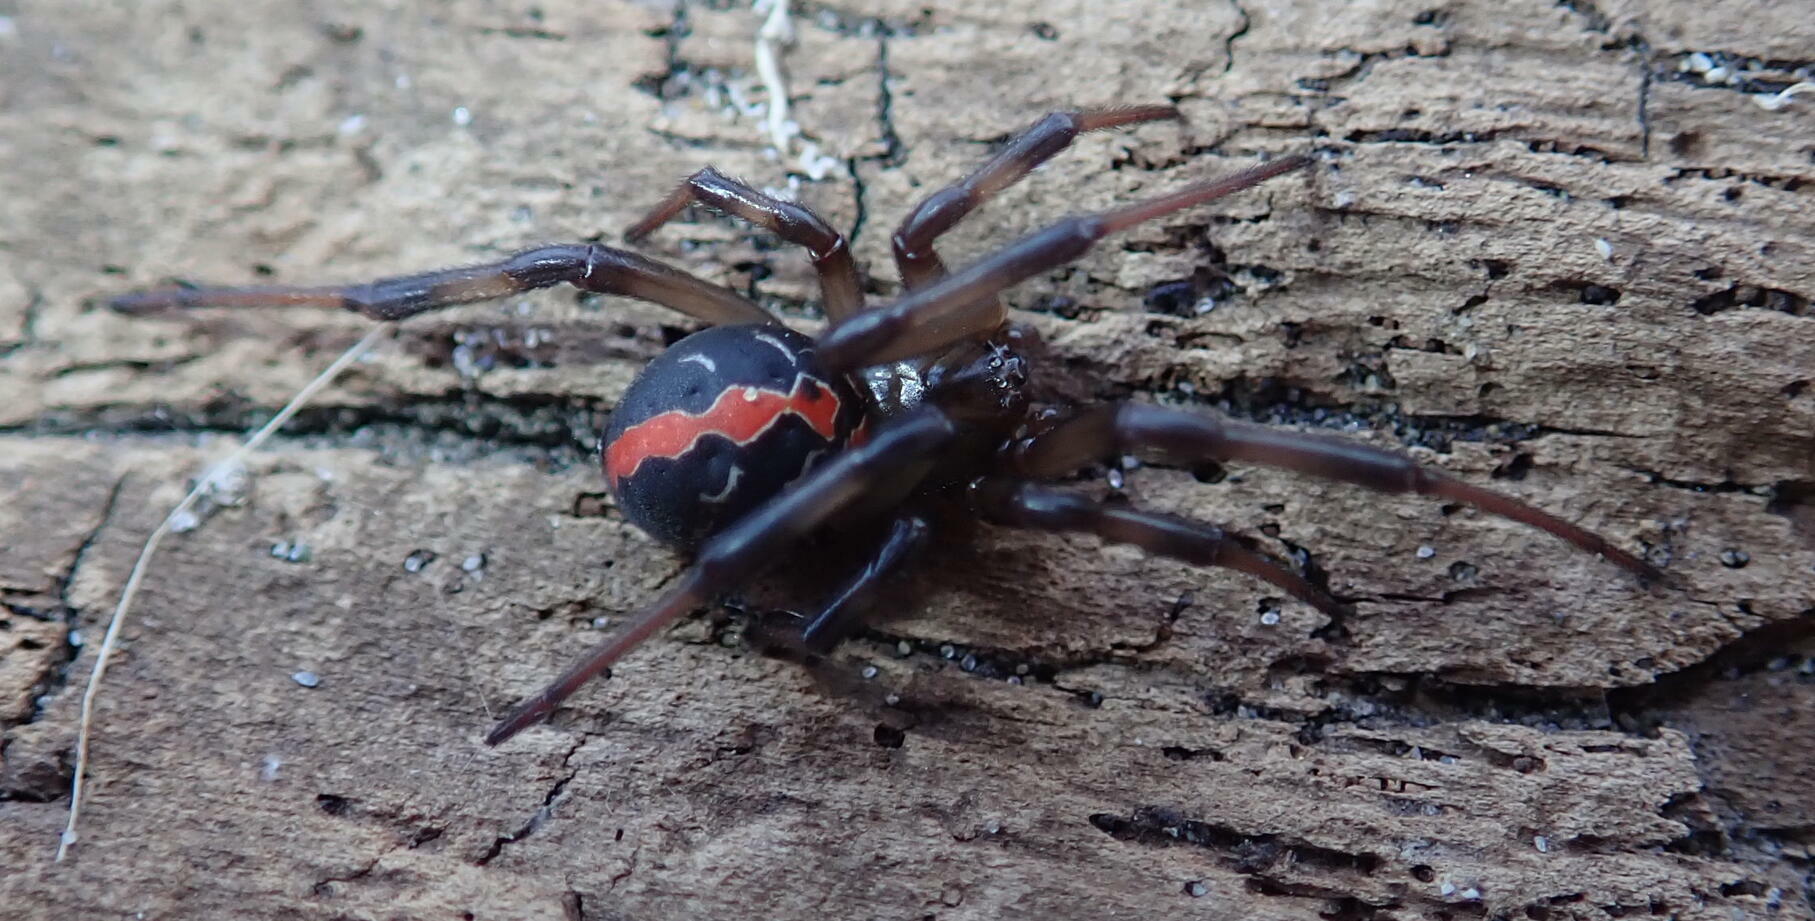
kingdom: Animalia
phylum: Arthropoda
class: Arachnida
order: Araneae
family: Theridiidae
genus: Latrodectus
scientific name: Latrodectus katipo
